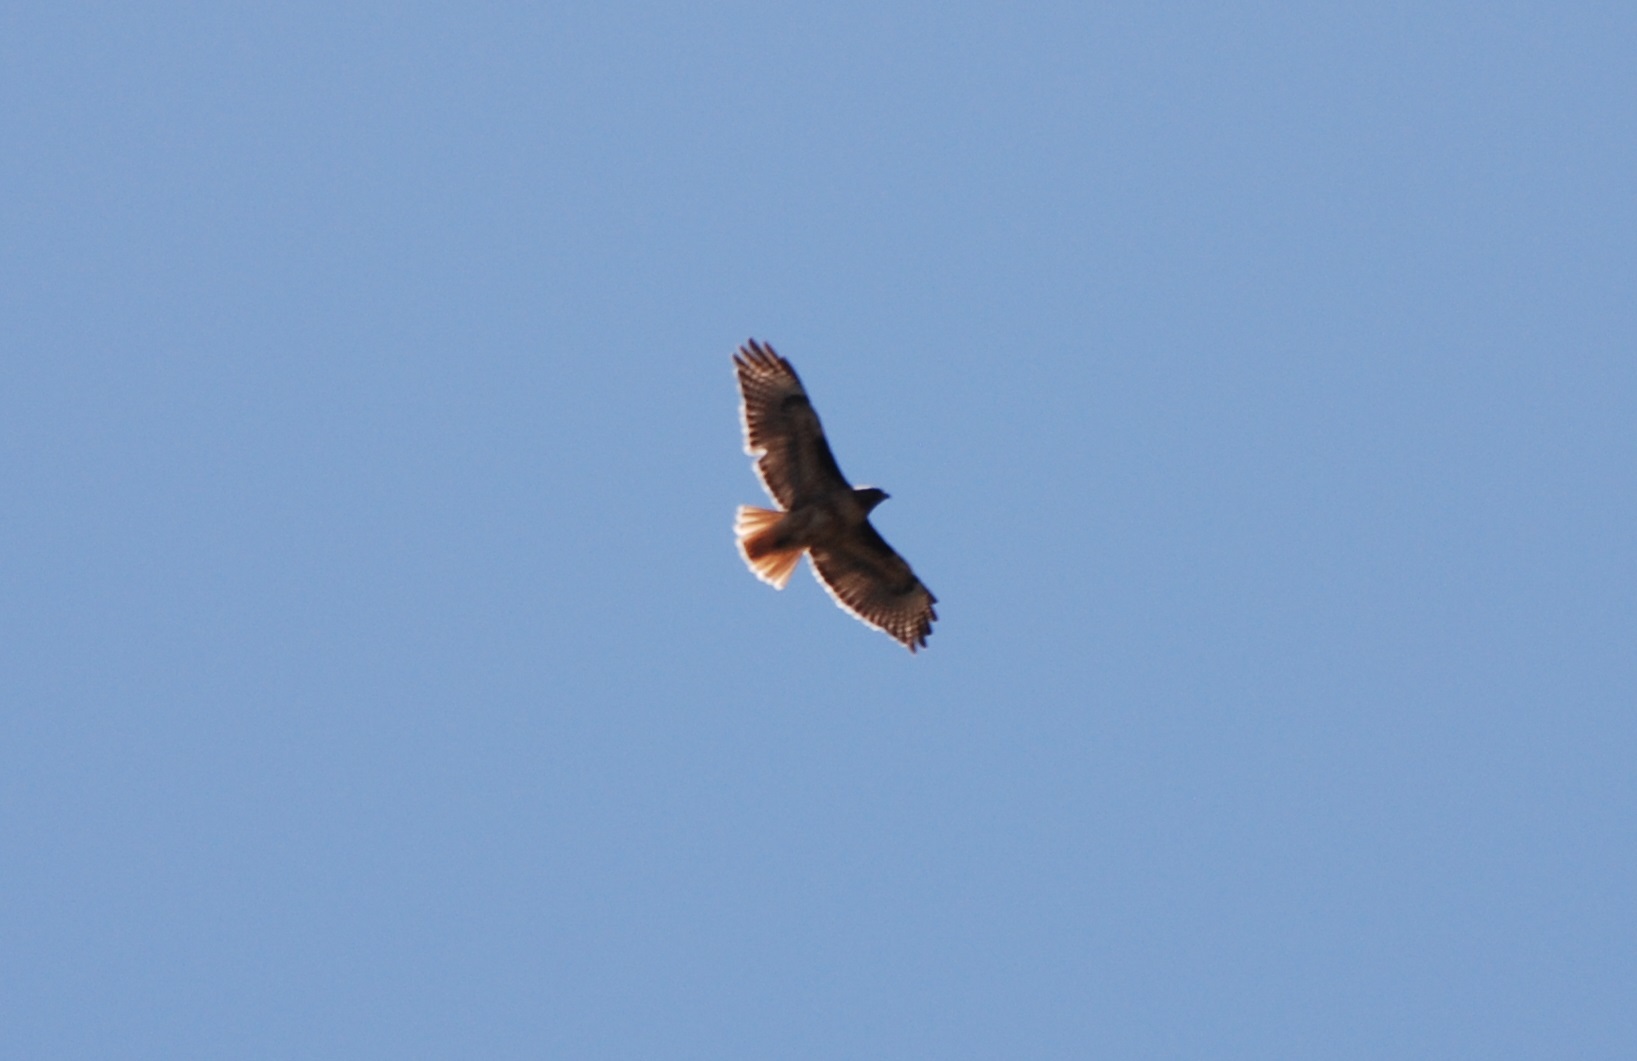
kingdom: Animalia
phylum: Chordata
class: Aves
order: Accipitriformes
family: Accipitridae
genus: Buteo
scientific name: Buteo jamaicensis
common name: Red-tailed hawk
